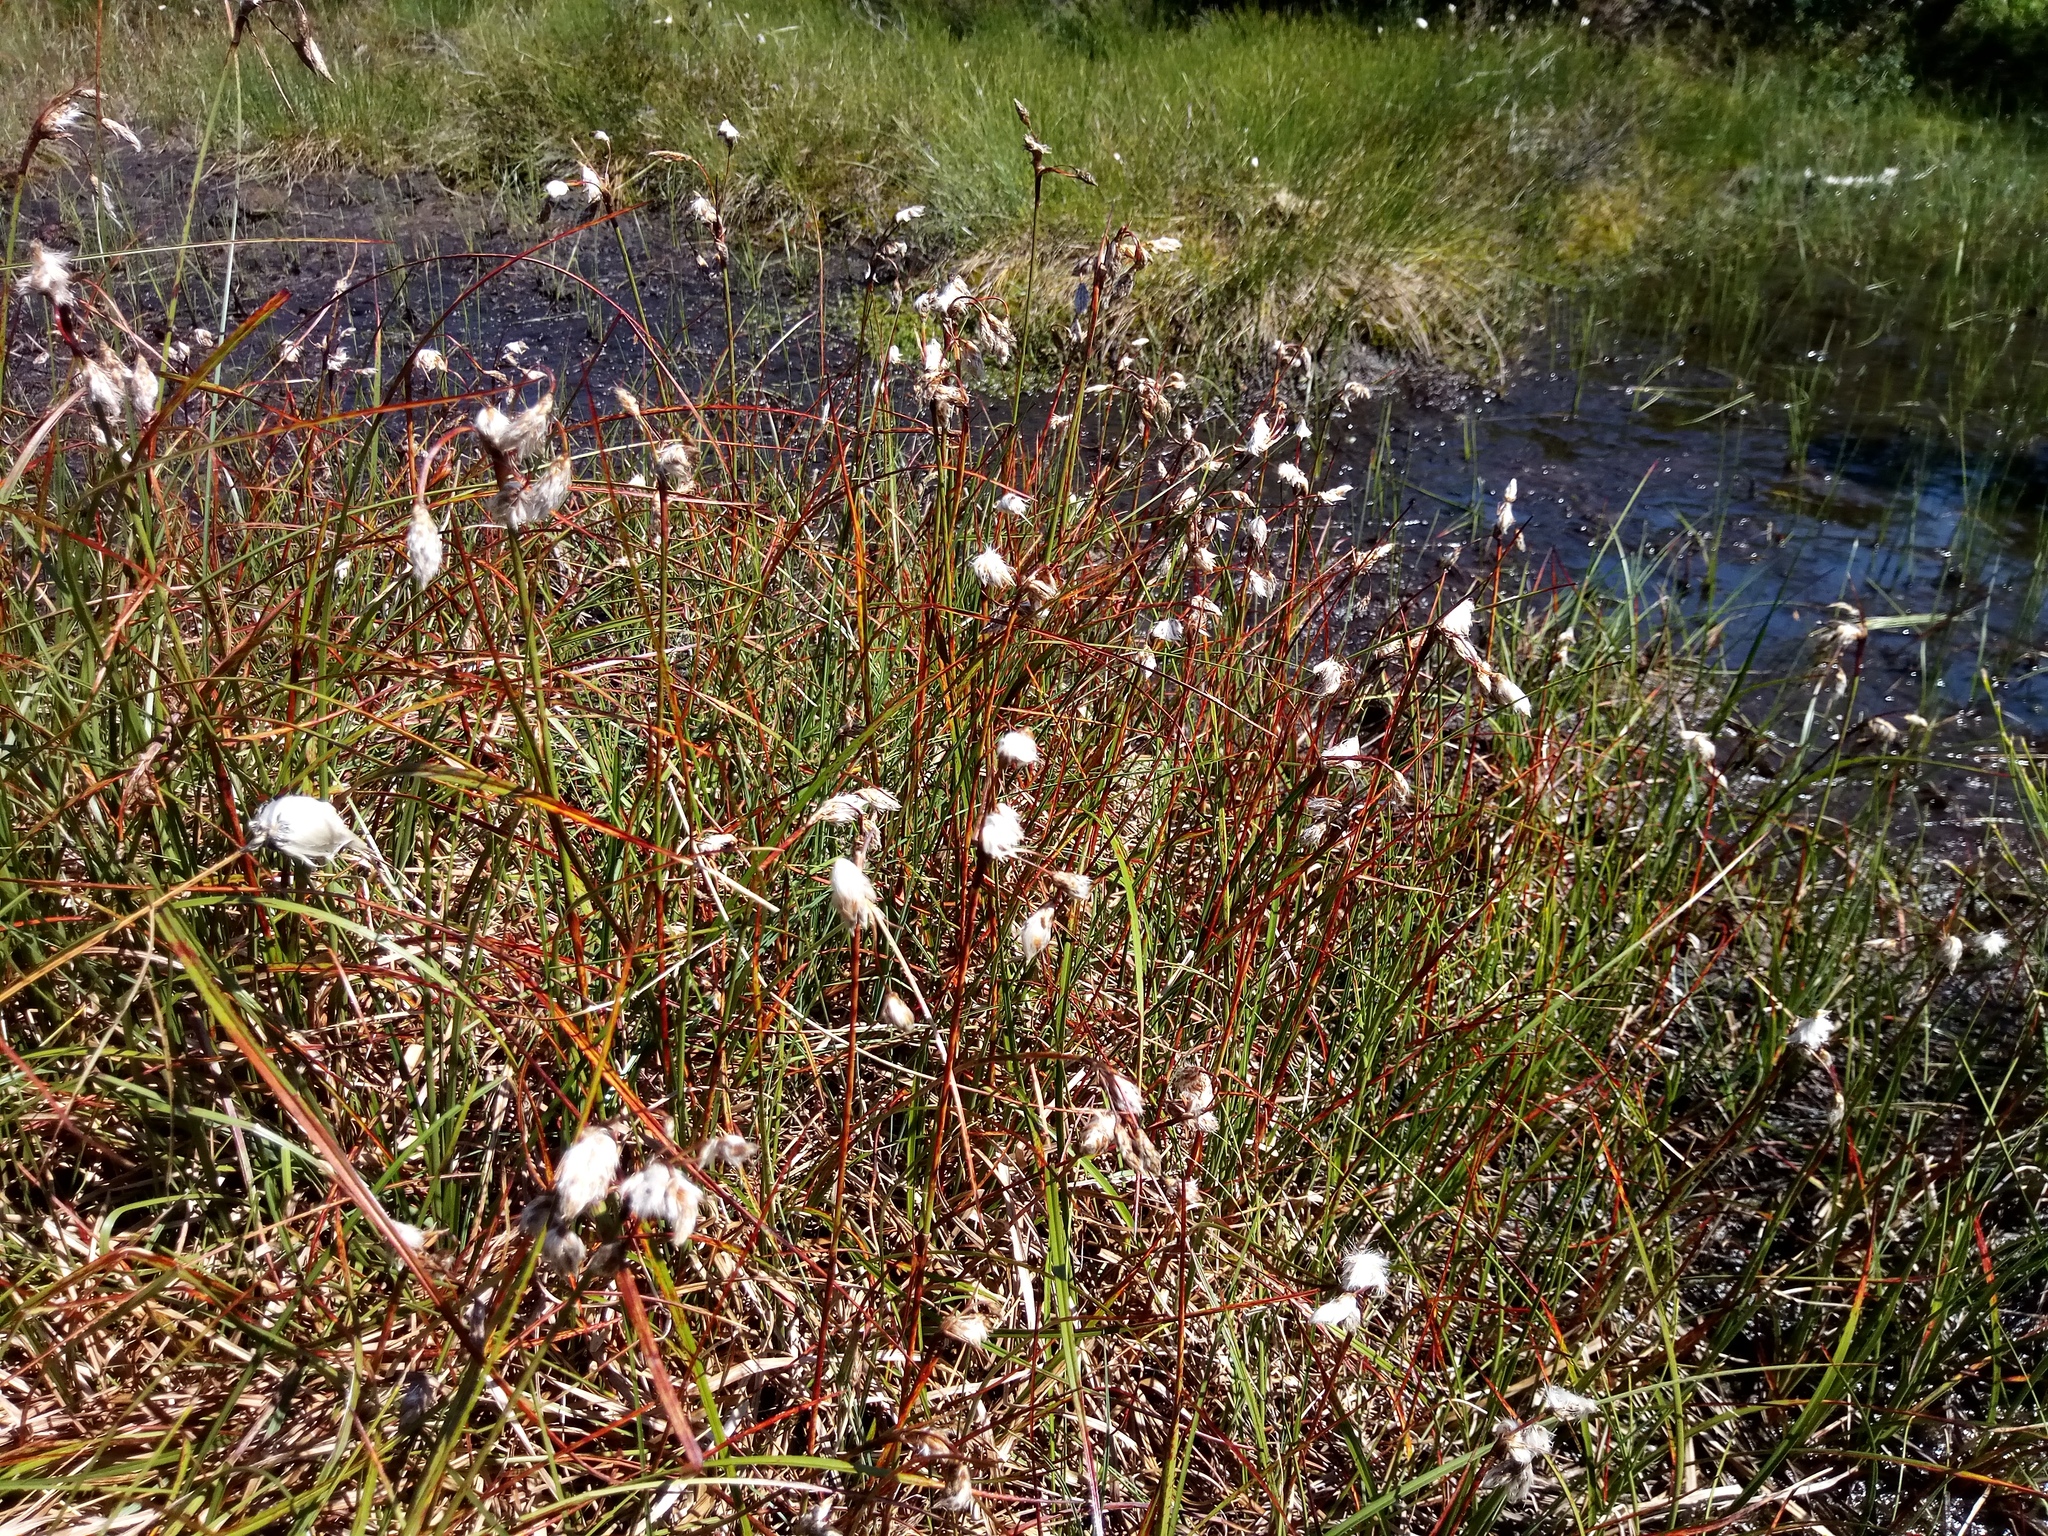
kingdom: Plantae
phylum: Tracheophyta
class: Liliopsida
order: Poales
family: Cyperaceae
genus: Eriophorum
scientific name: Eriophorum angustifolium
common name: Common cottongrass
